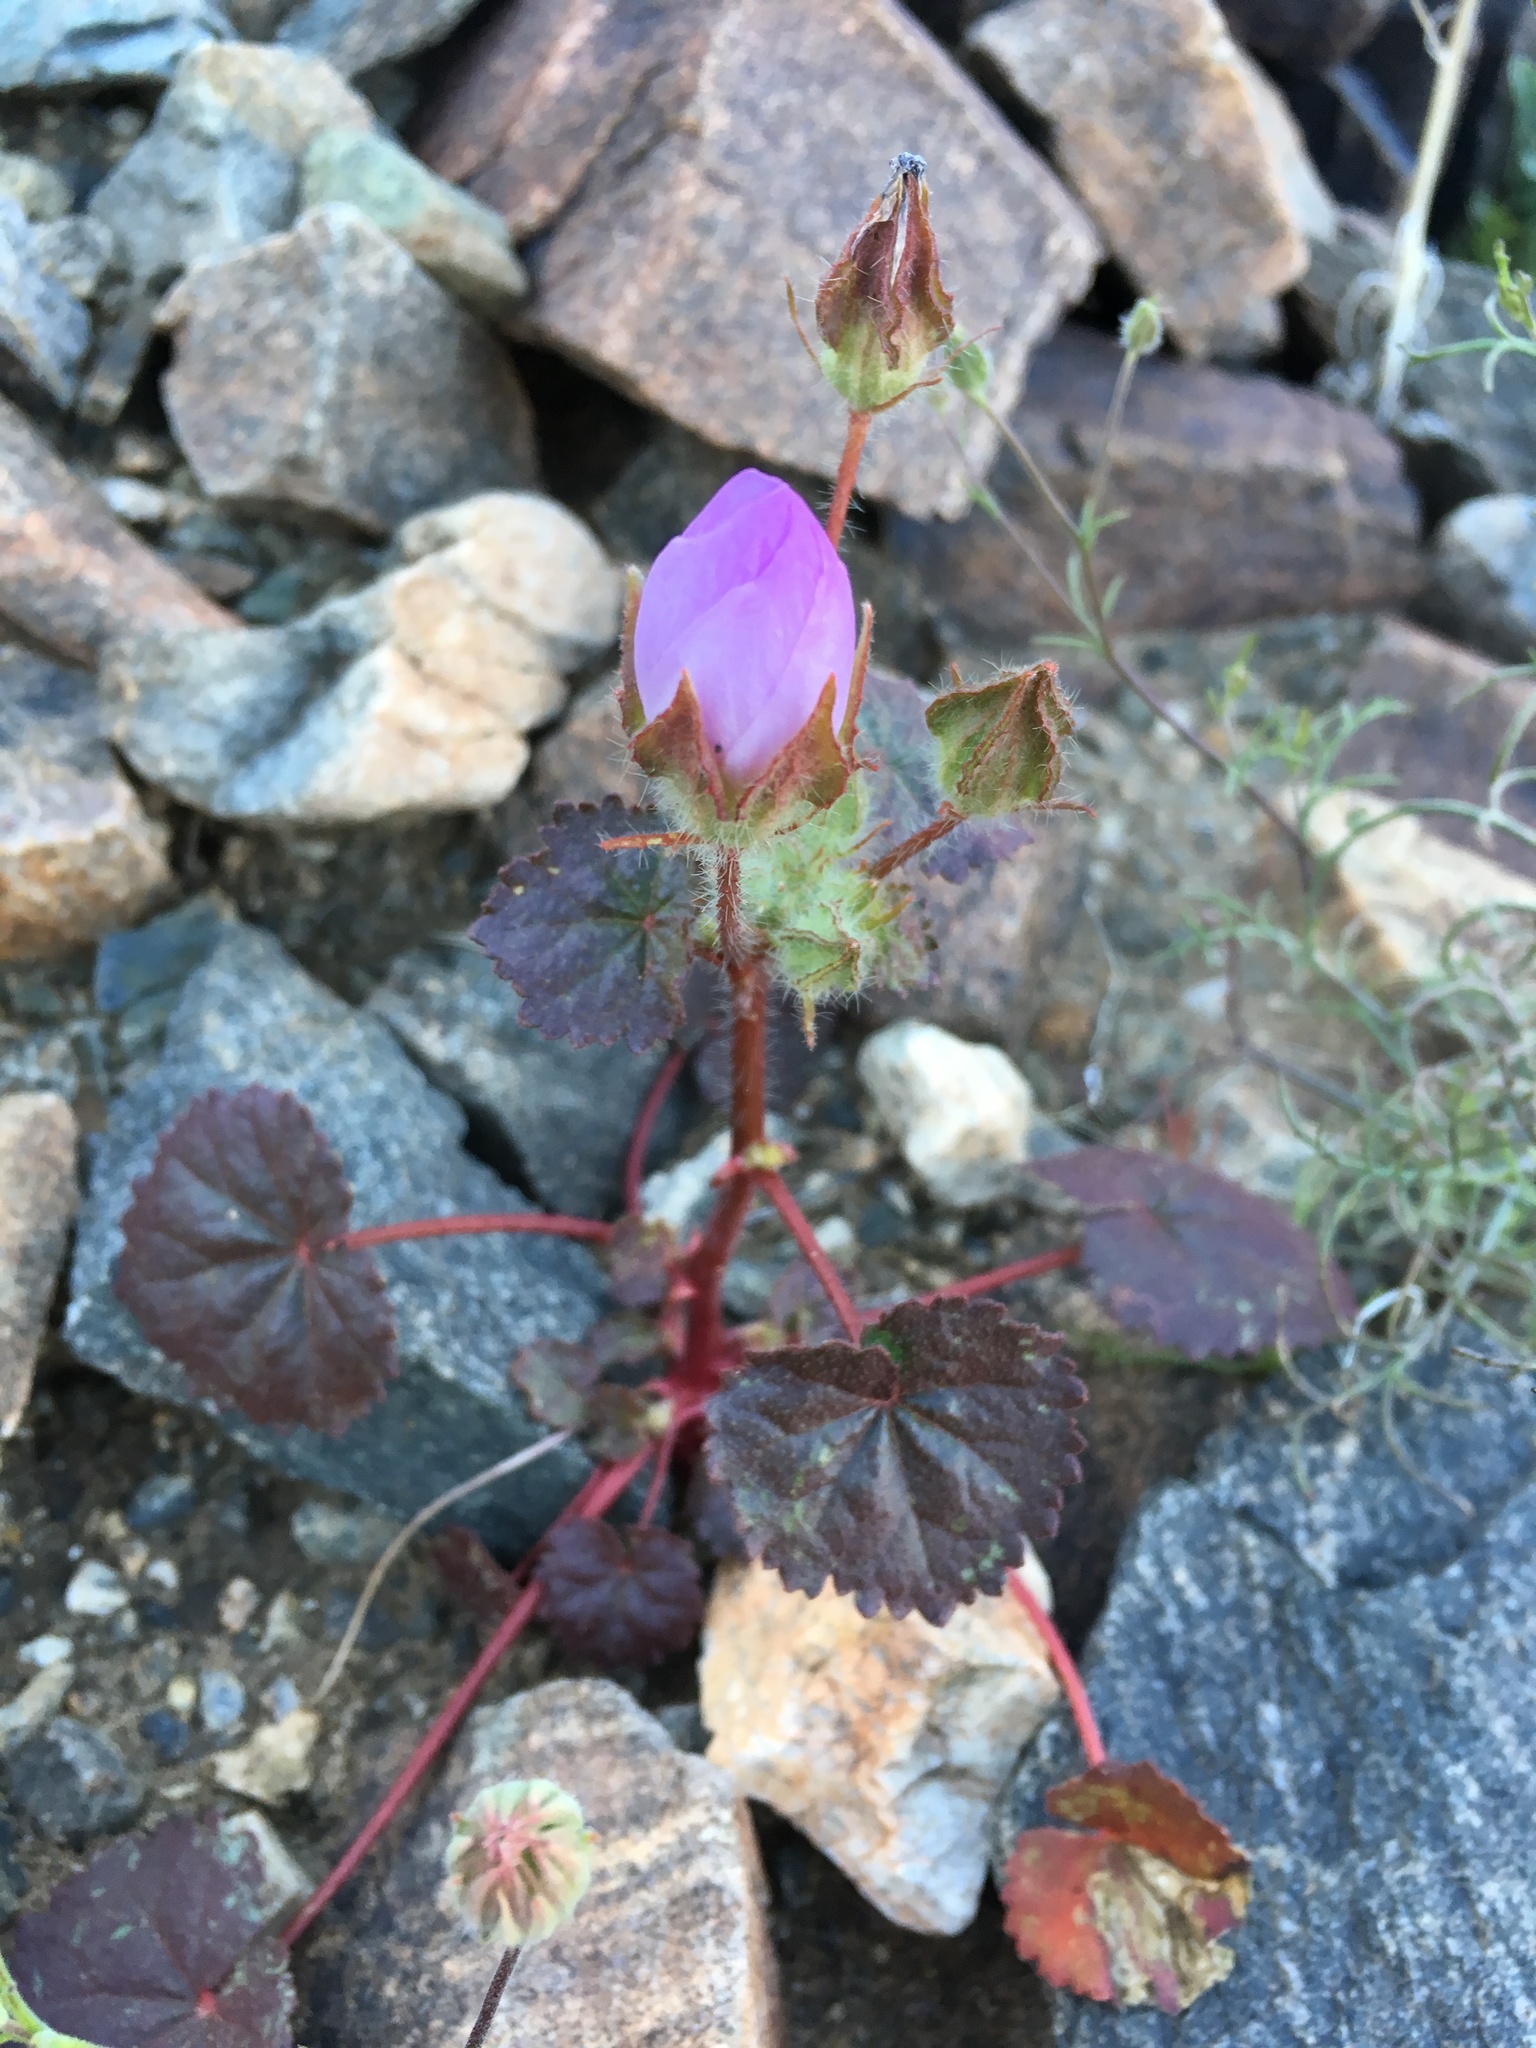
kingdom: Plantae
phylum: Tracheophyta
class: Magnoliopsida
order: Malvales
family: Malvaceae
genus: Eremalche
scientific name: Eremalche rotundifolia
